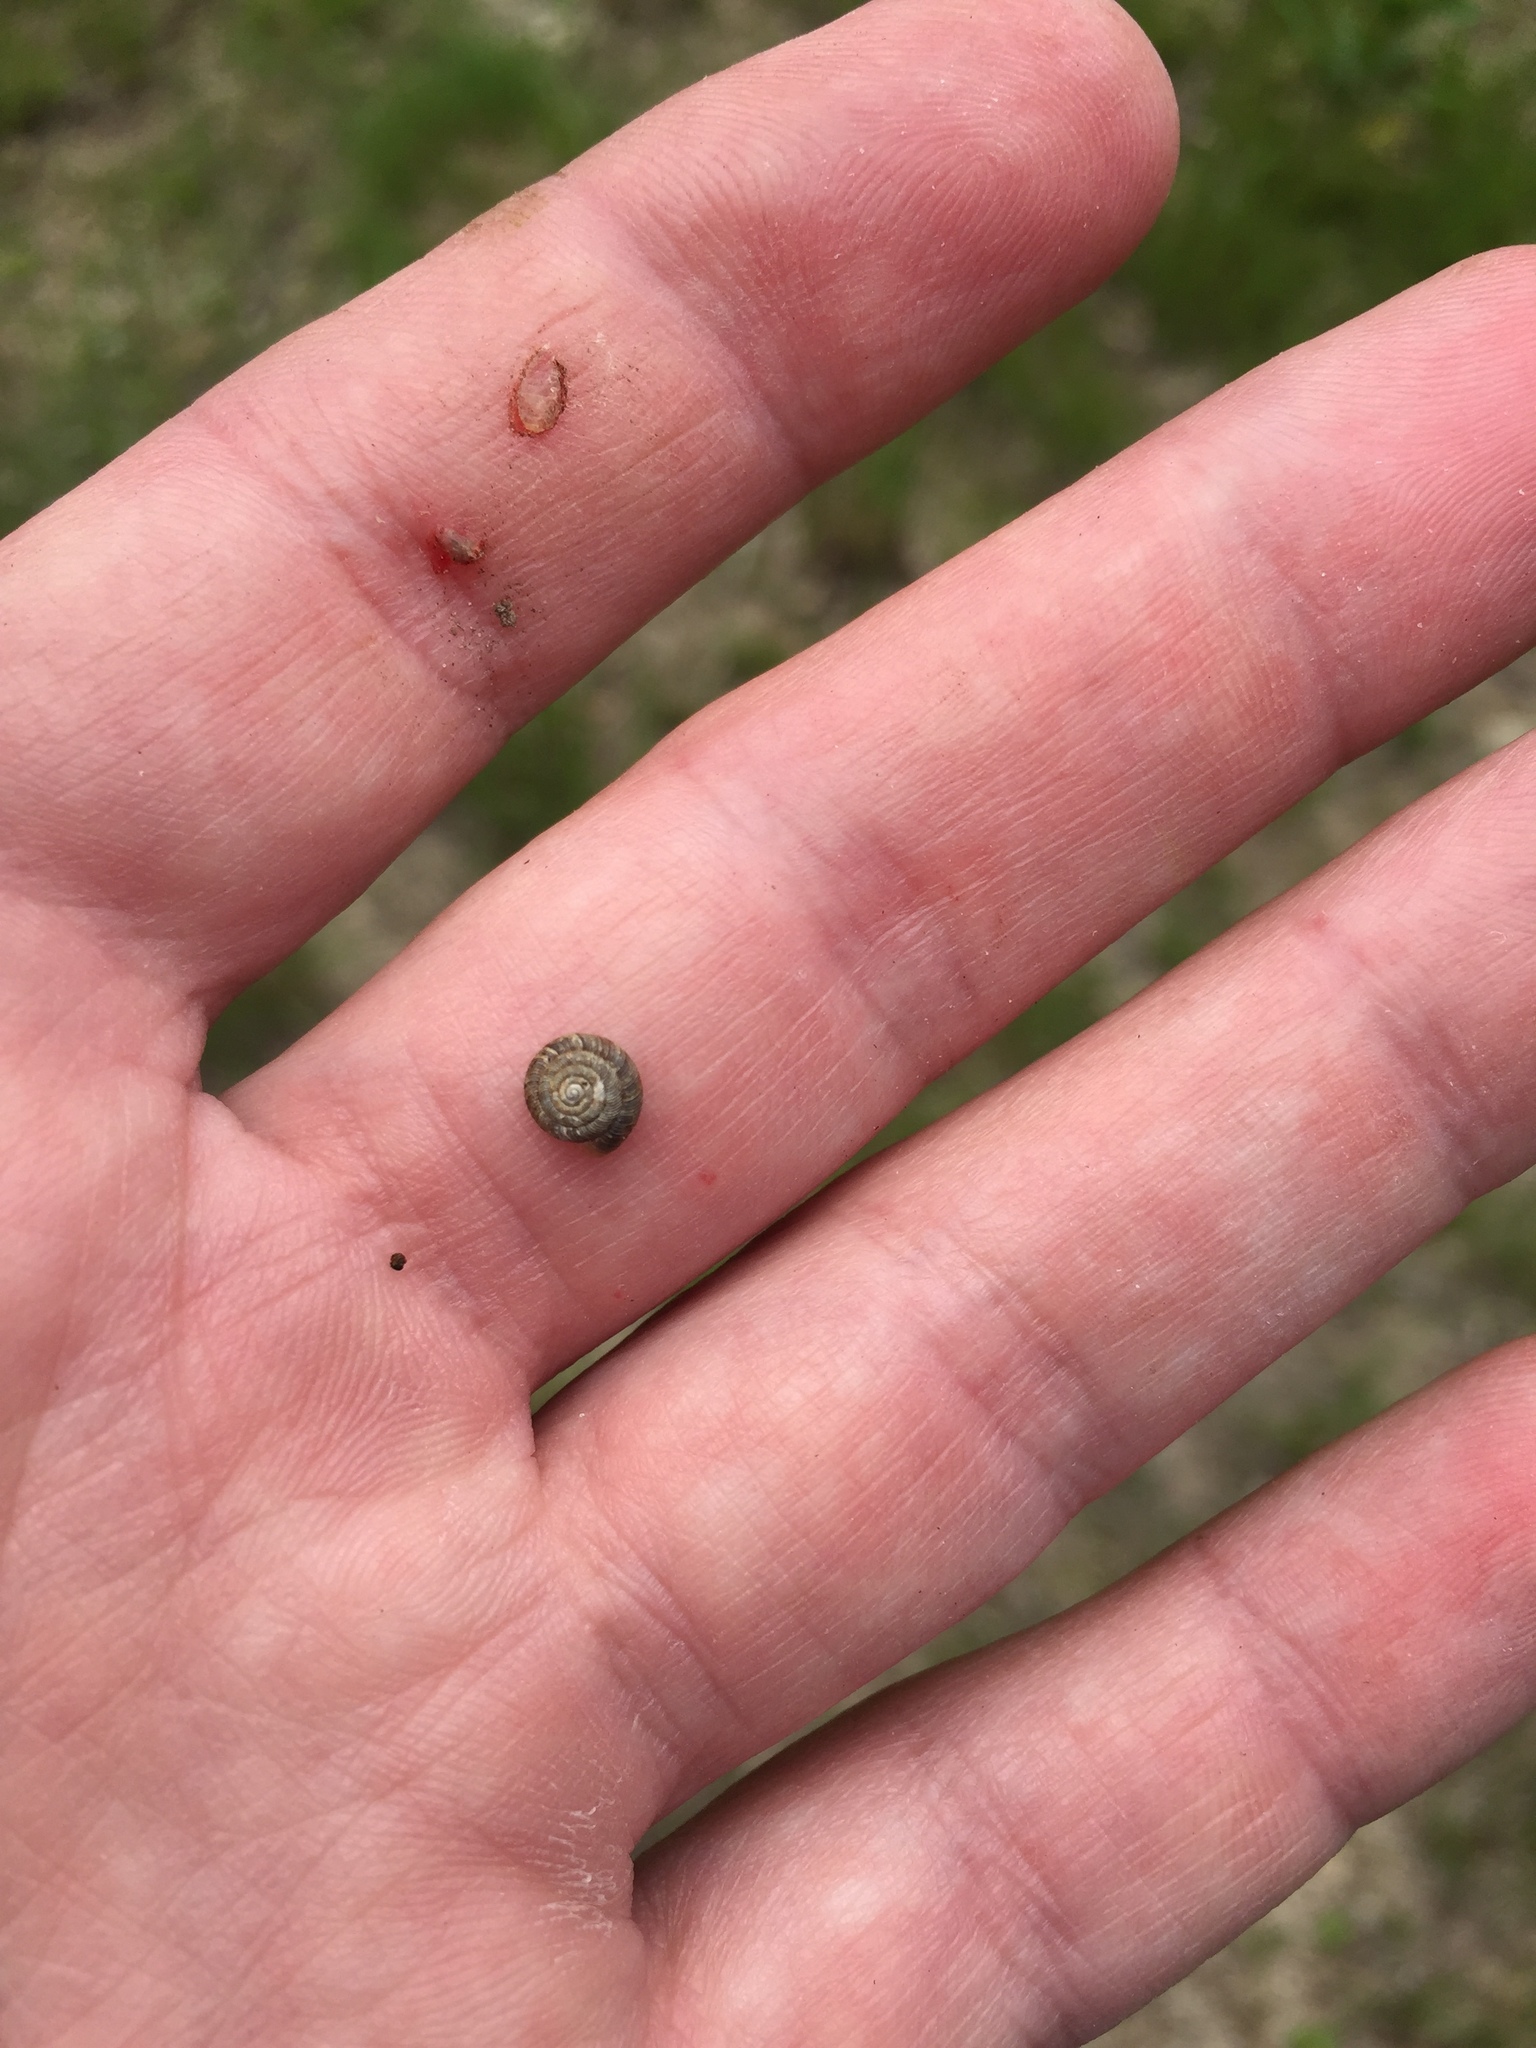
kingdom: Animalia
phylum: Mollusca
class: Gastropoda
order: Stylommatophora
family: Discidae
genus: Discus
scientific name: Discus rotundatus
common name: Rounded snail
